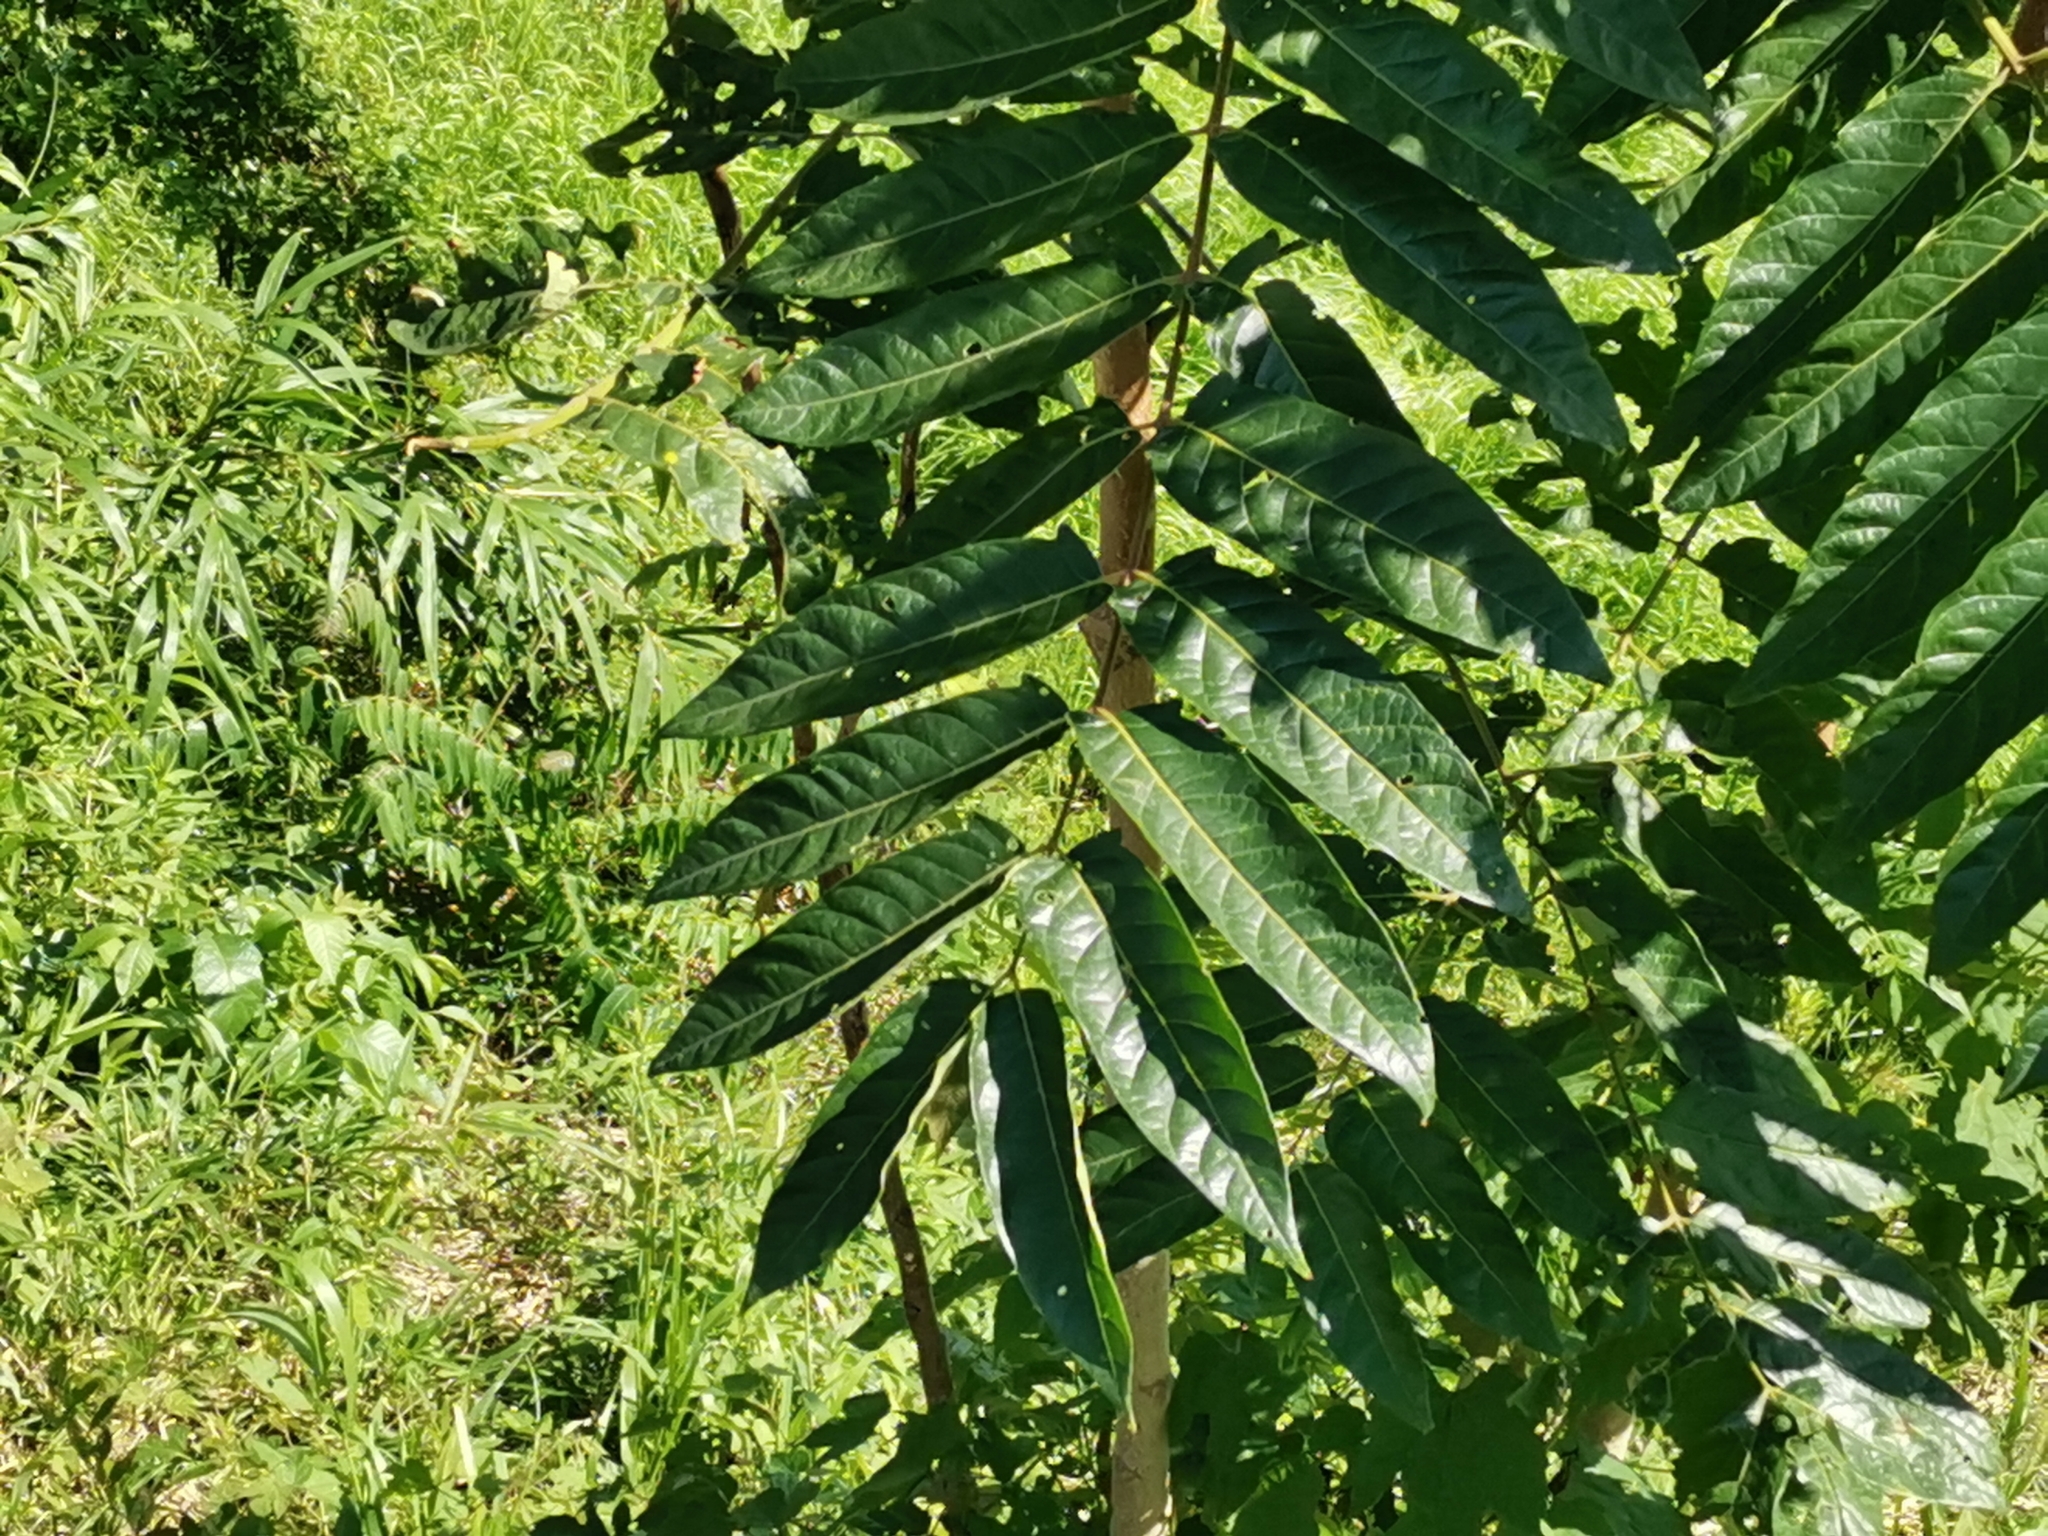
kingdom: Plantae
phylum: Tracheophyta
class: Magnoliopsida
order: Sapindales
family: Simaroubaceae
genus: Ailanthus
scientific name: Ailanthus altissima
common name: Tree-of-heaven
